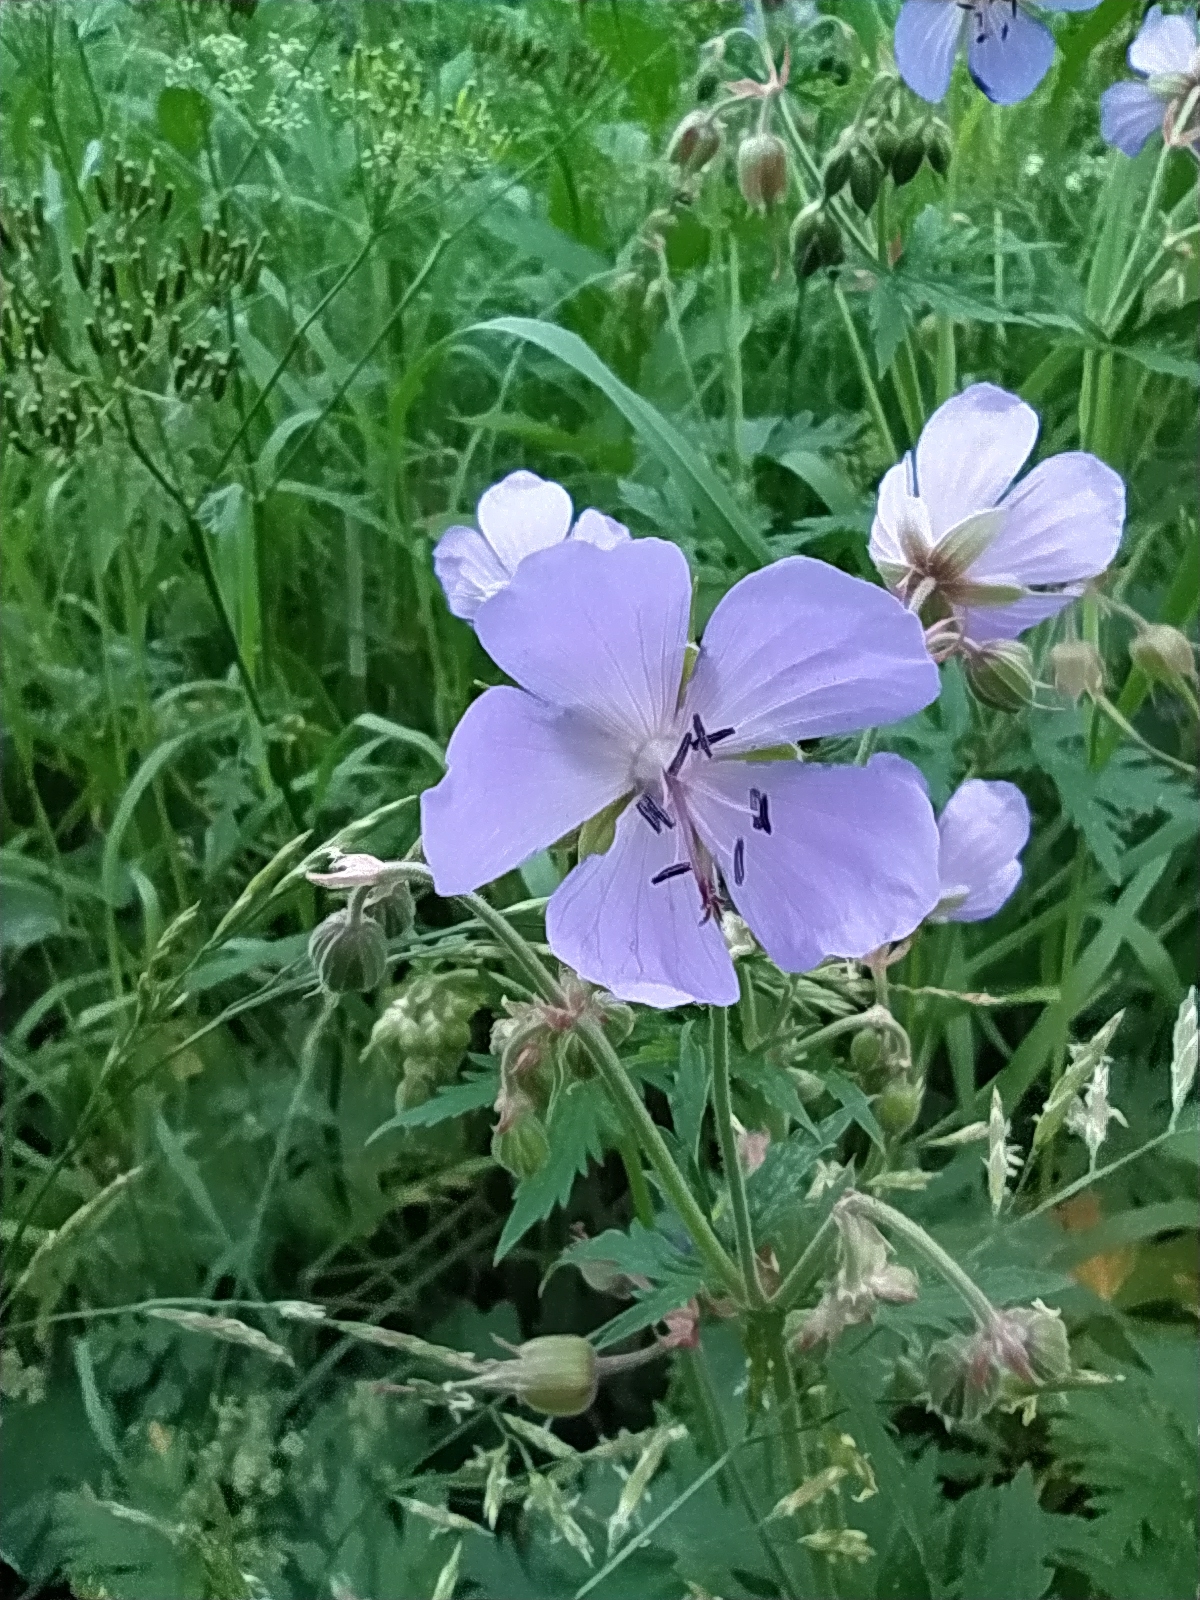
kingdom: Plantae
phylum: Tracheophyta
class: Magnoliopsida
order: Geraniales
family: Geraniaceae
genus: Geranium
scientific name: Geranium pratense
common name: Meadow crane's-bill
